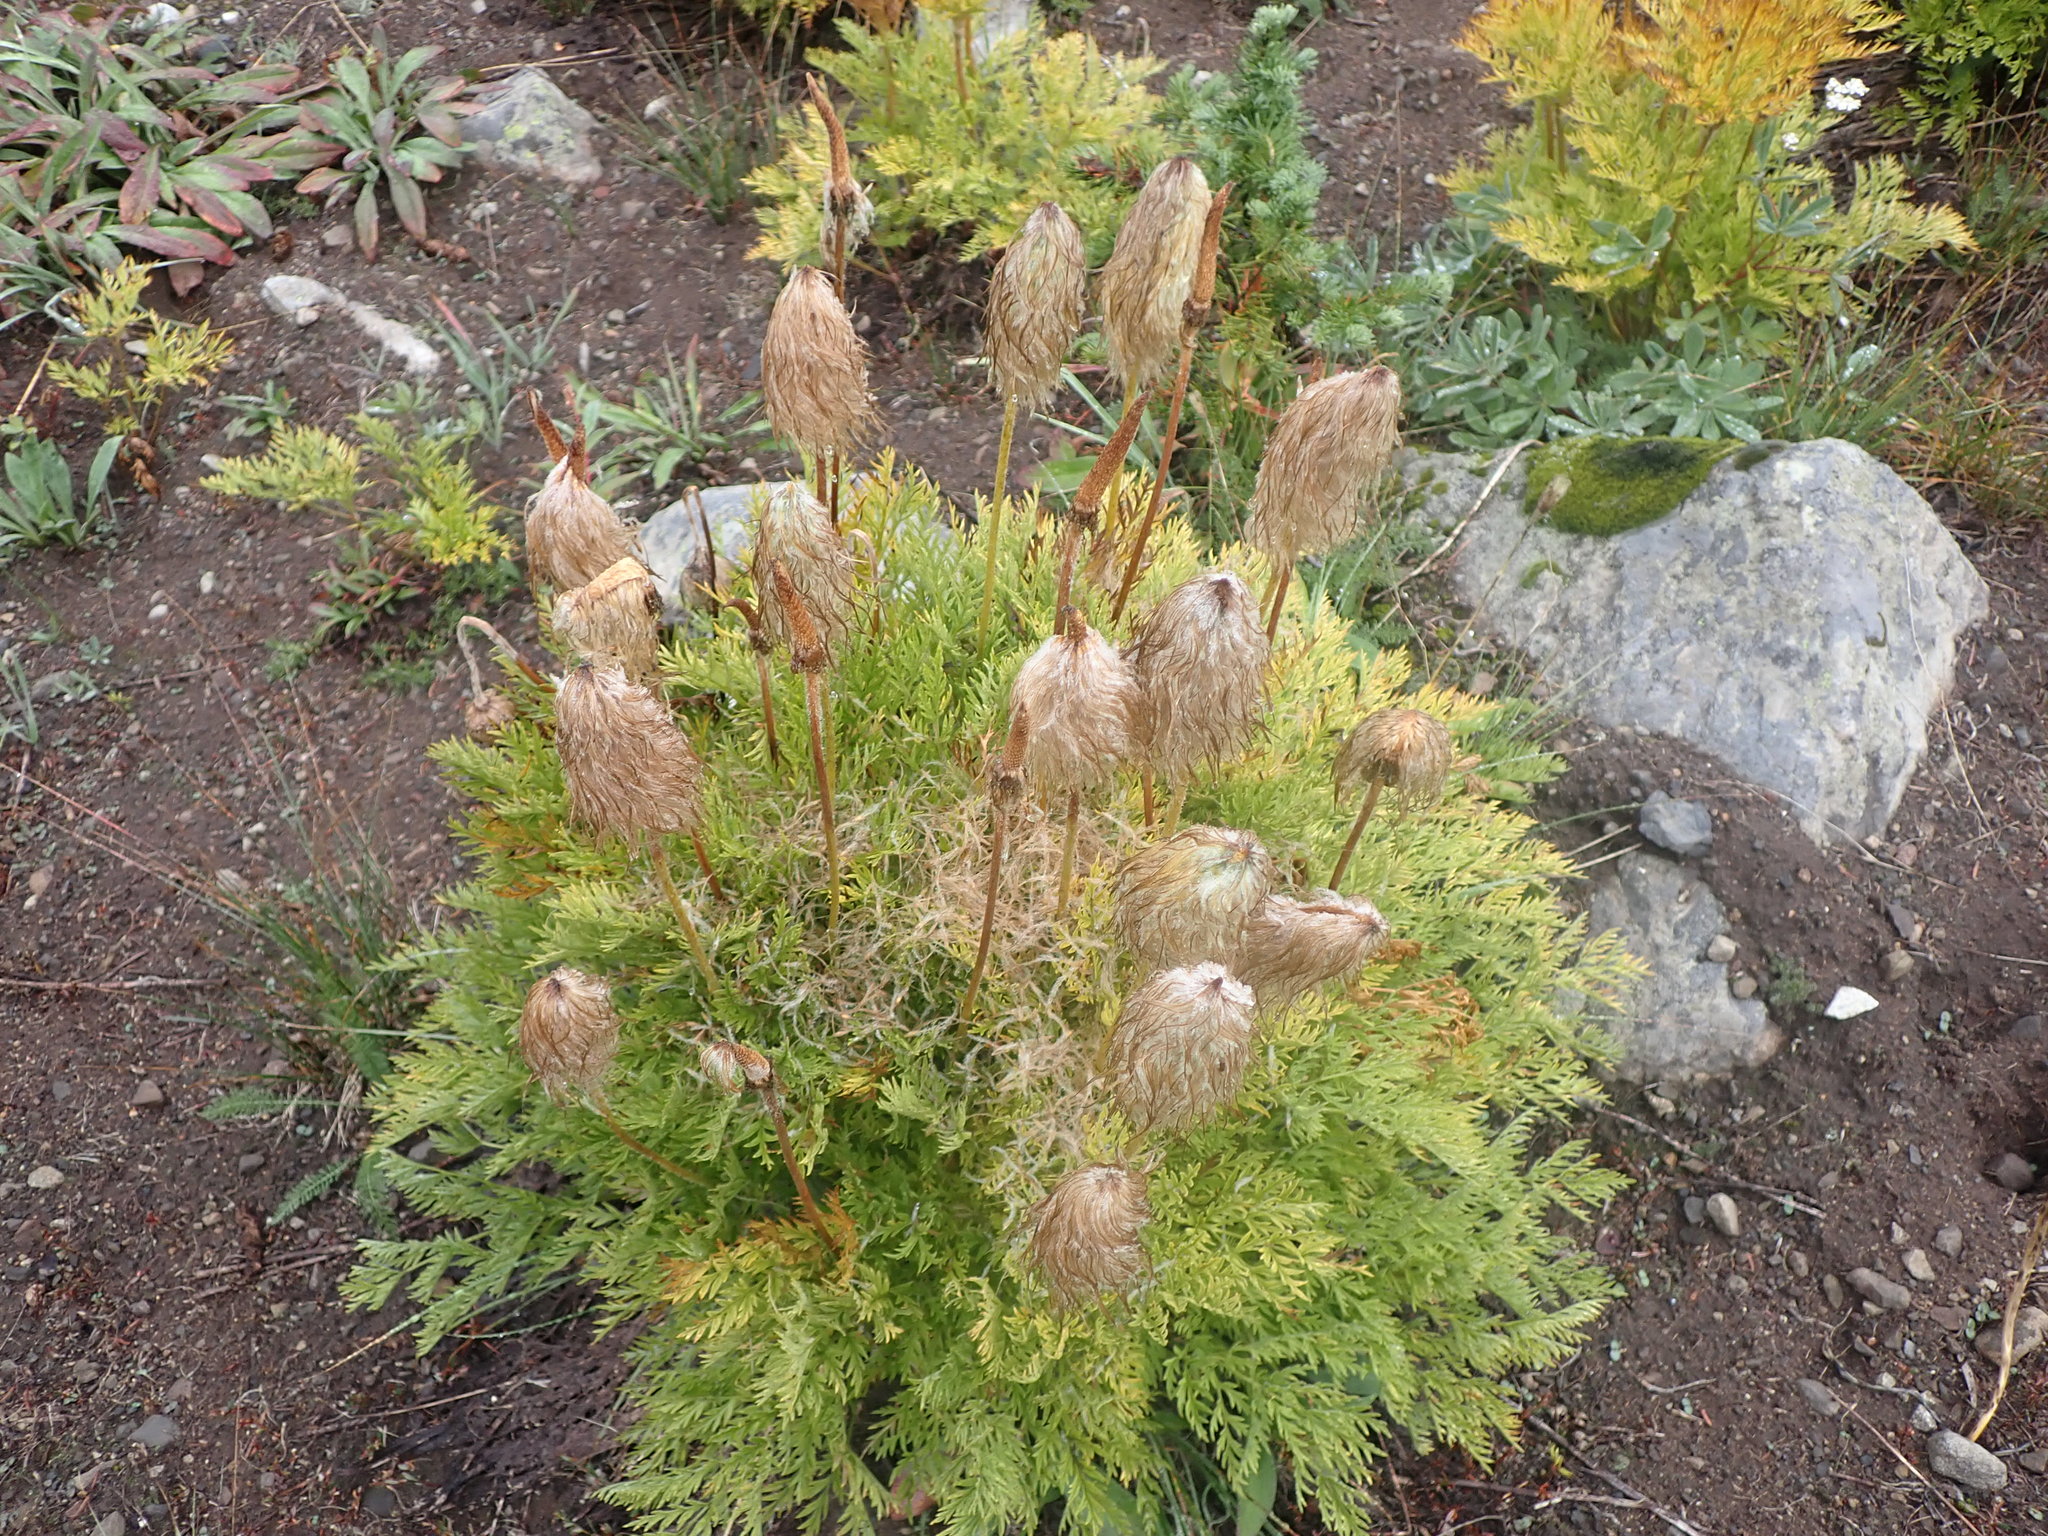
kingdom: Plantae
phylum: Tracheophyta
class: Magnoliopsida
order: Ranunculales
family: Ranunculaceae
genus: Pulsatilla
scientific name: Pulsatilla occidentalis
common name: Mountain pasqueflower
